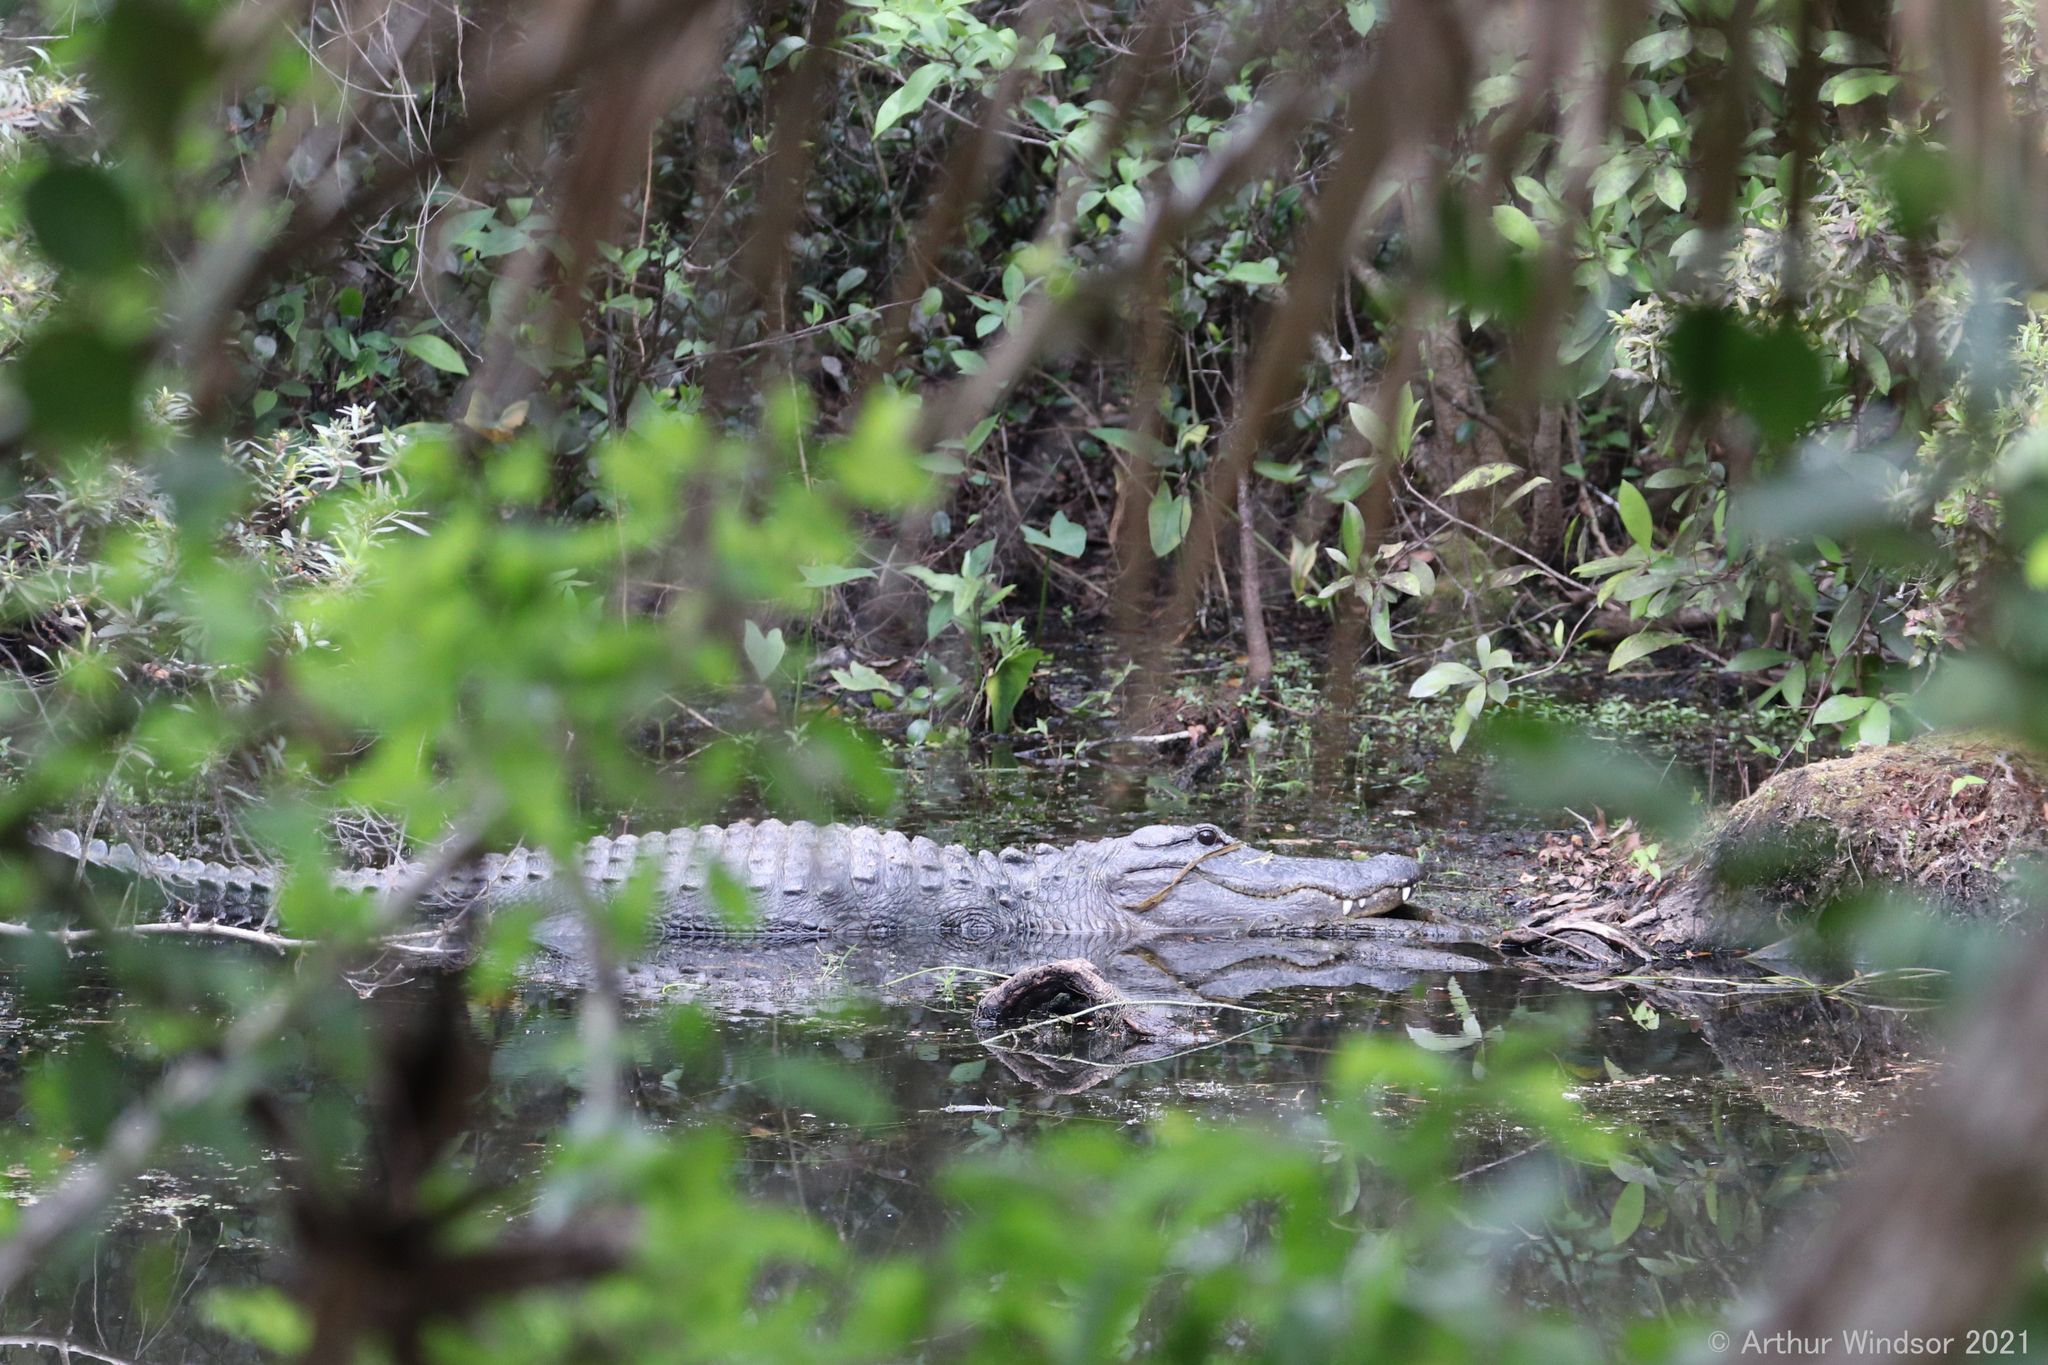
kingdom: Animalia
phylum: Chordata
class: Crocodylia
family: Alligatoridae
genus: Alligator
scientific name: Alligator mississippiensis
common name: American alligator
